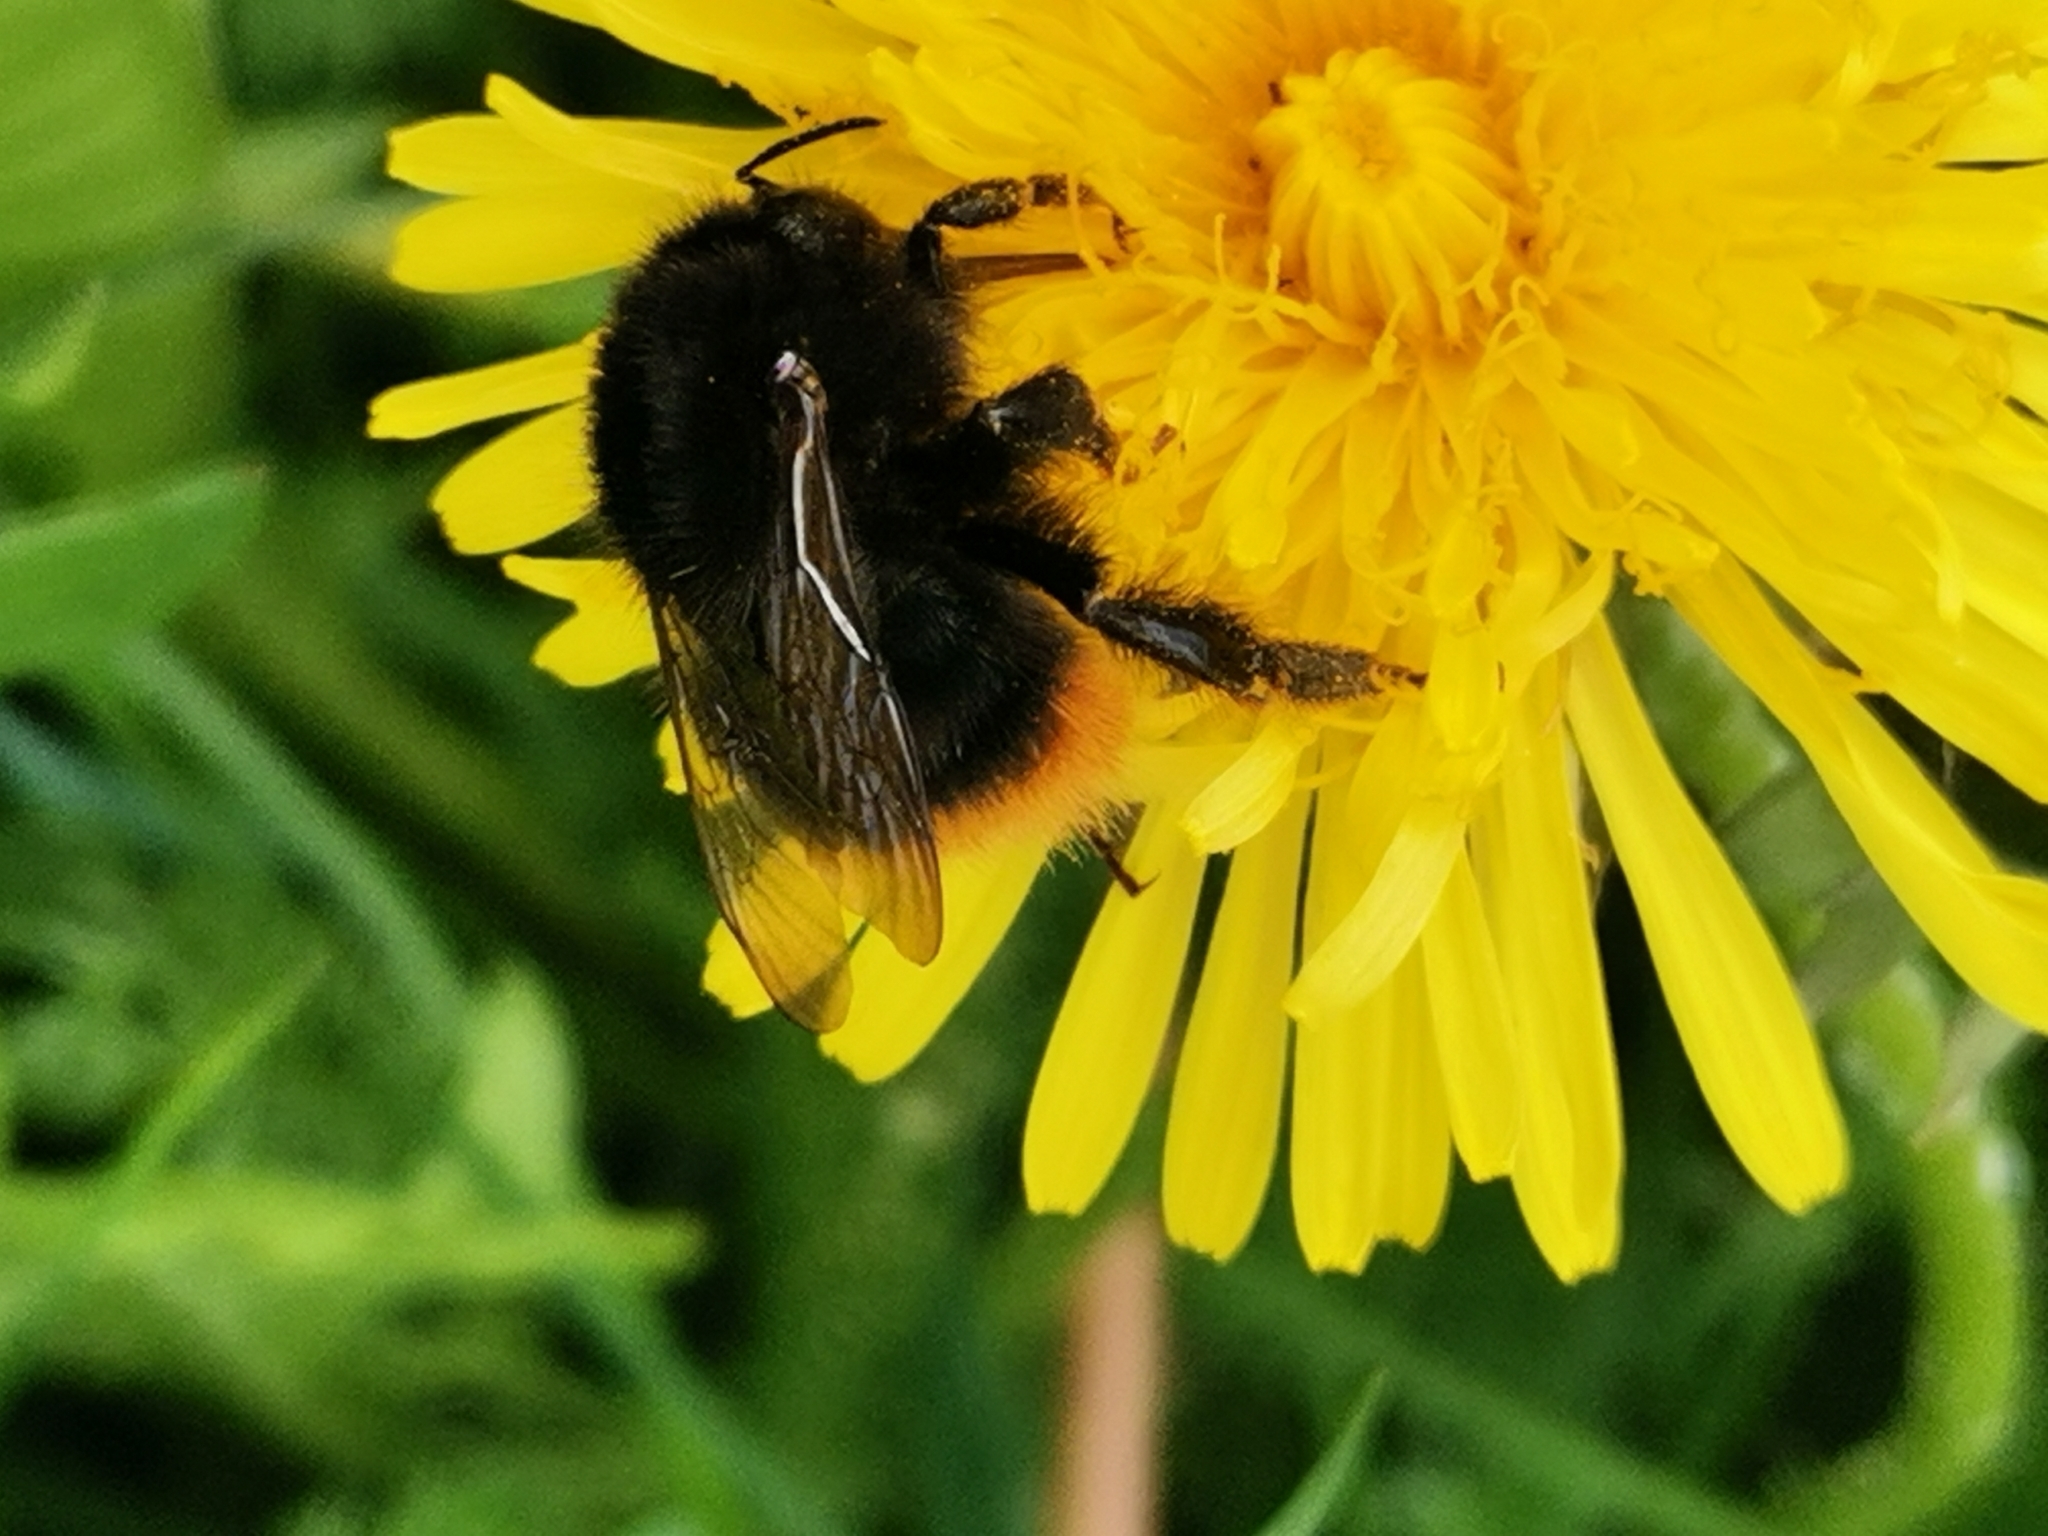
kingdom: Animalia
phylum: Arthropoda
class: Insecta
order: Hymenoptera
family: Apidae
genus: Bombus
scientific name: Bombus lapidarius
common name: Large red-tailed humble-bee
